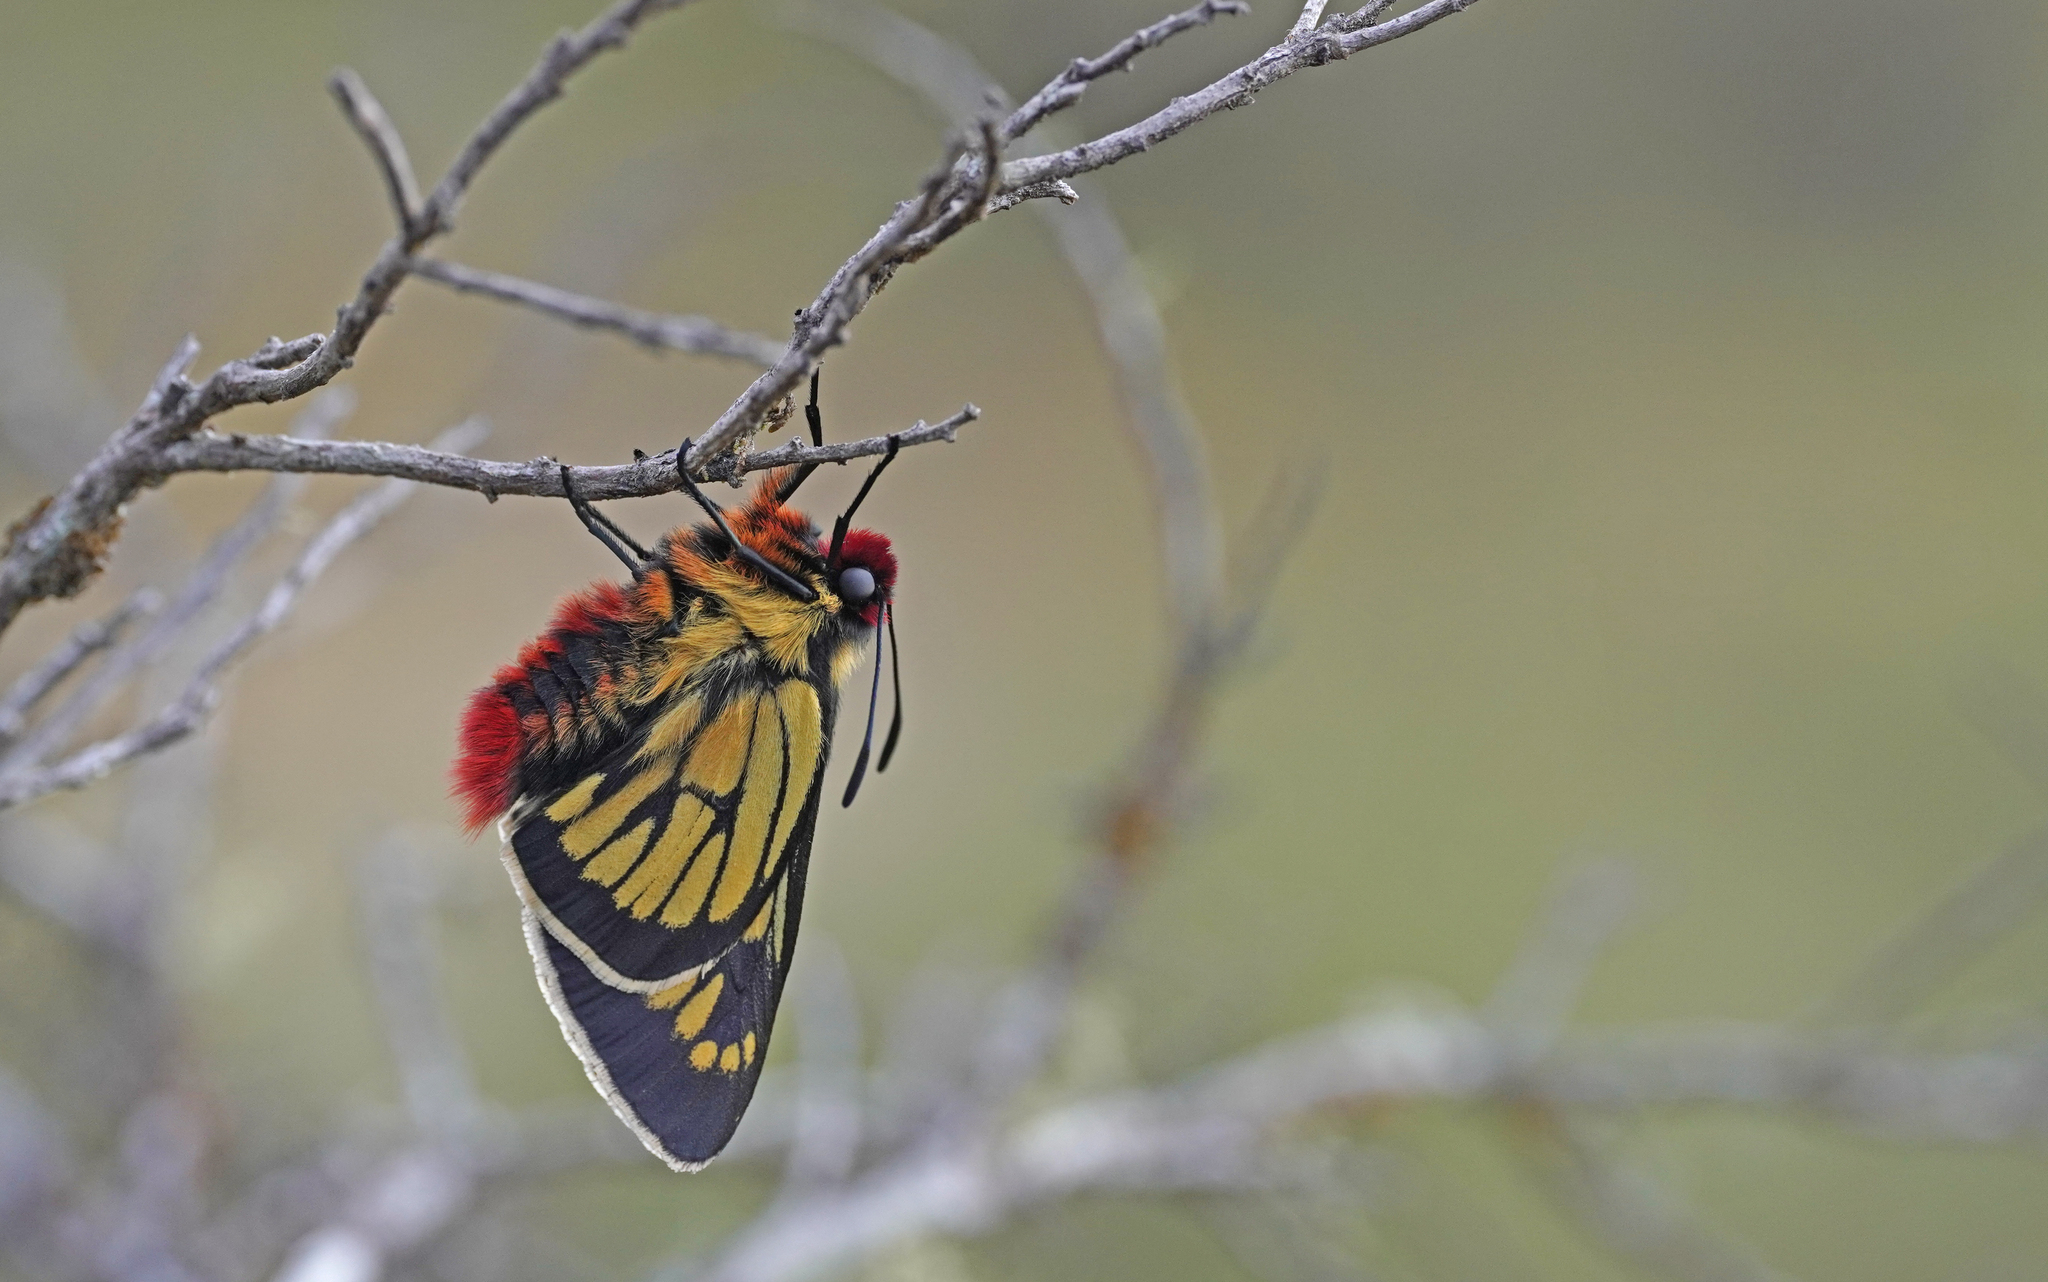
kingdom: Animalia
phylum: Arthropoda
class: Insecta
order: Lepidoptera
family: Hesperiidae
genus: Metardaris
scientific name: Metardaris cosinga
